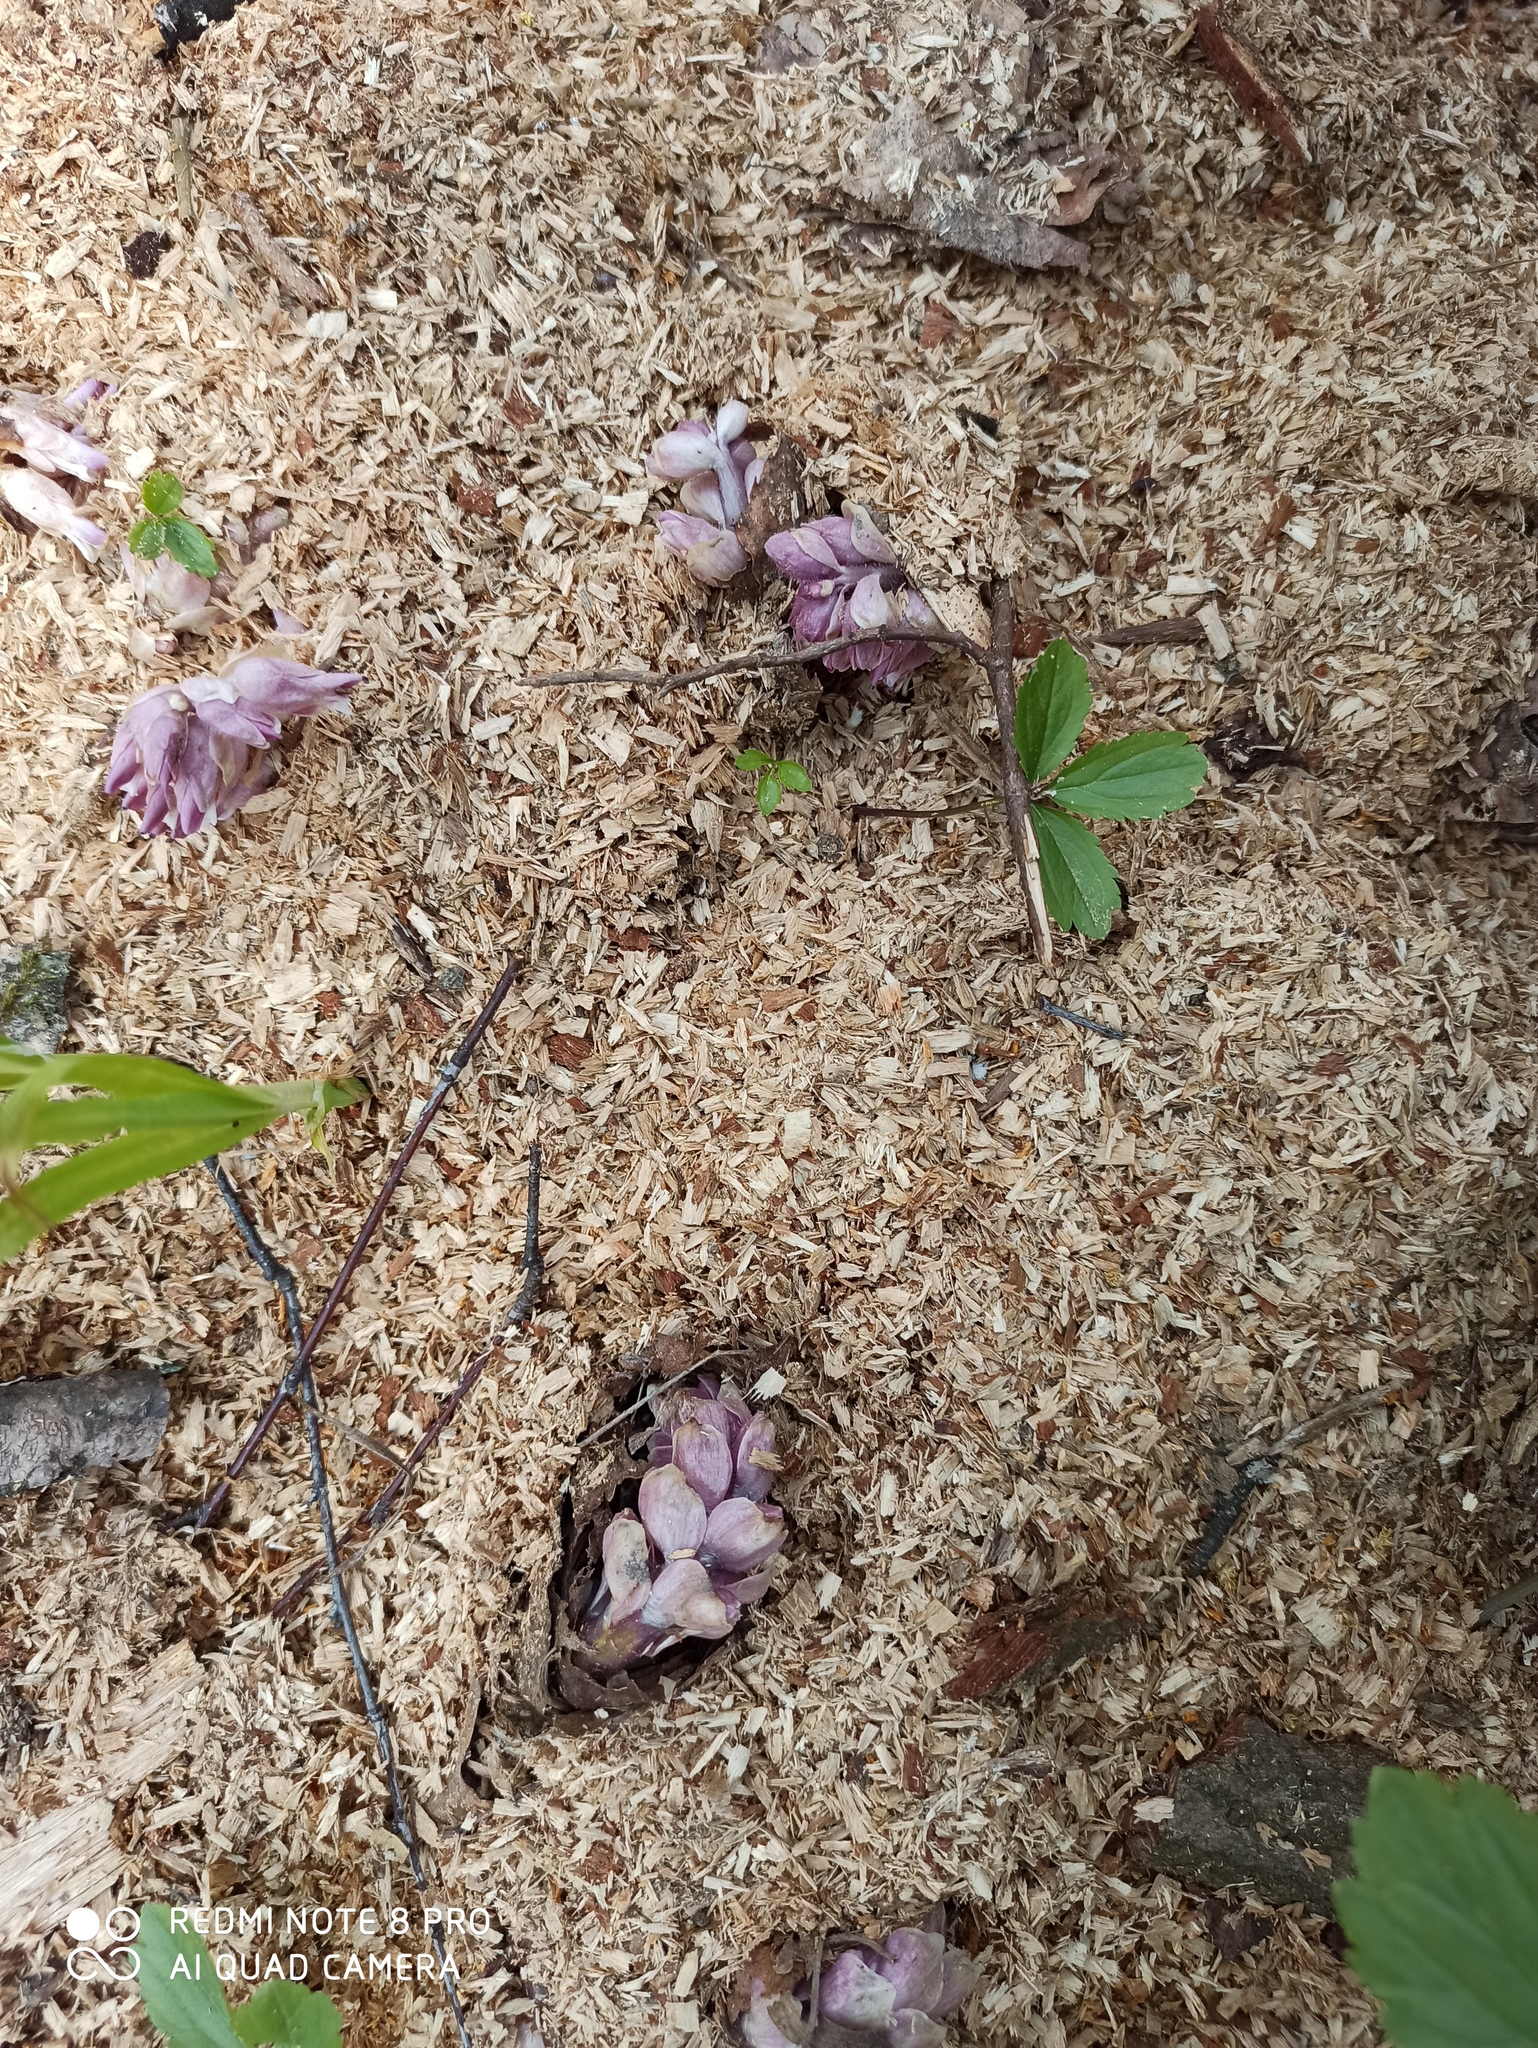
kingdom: Plantae
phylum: Tracheophyta
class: Magnoliopsida
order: Lamiales
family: Orobanchaceae
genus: Lathraea
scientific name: Lathraea squamaria
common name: Toothwort
